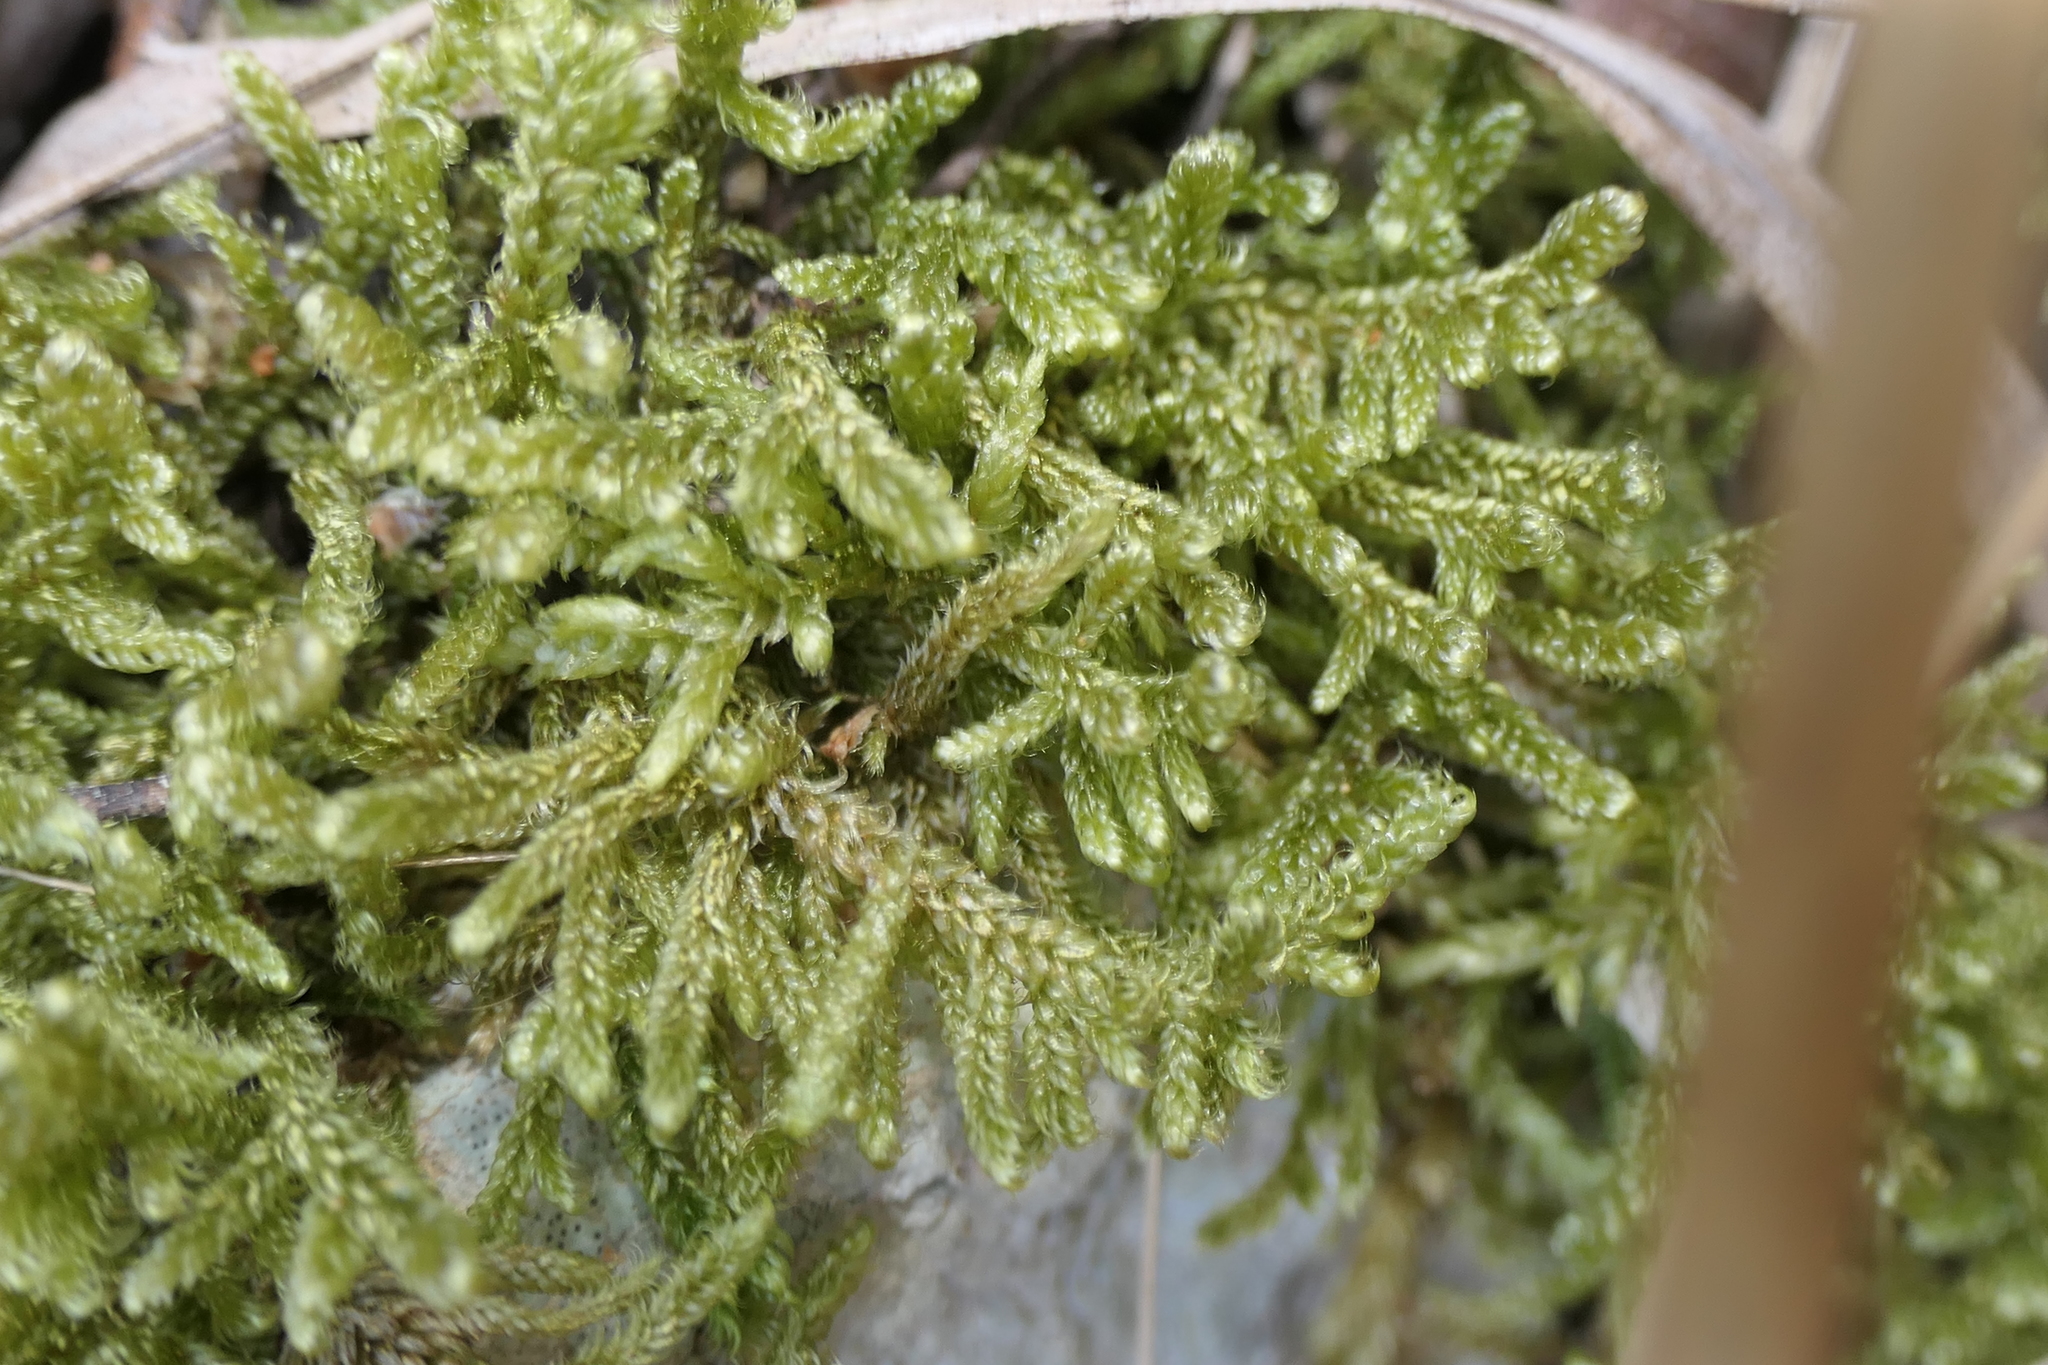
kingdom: Plantae
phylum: Bryophyta
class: Bryopsida
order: Hypnales
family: Hypnaceae
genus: Hypnum
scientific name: Hypnum cupressiforme
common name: Cypress-leaved plait-moss
